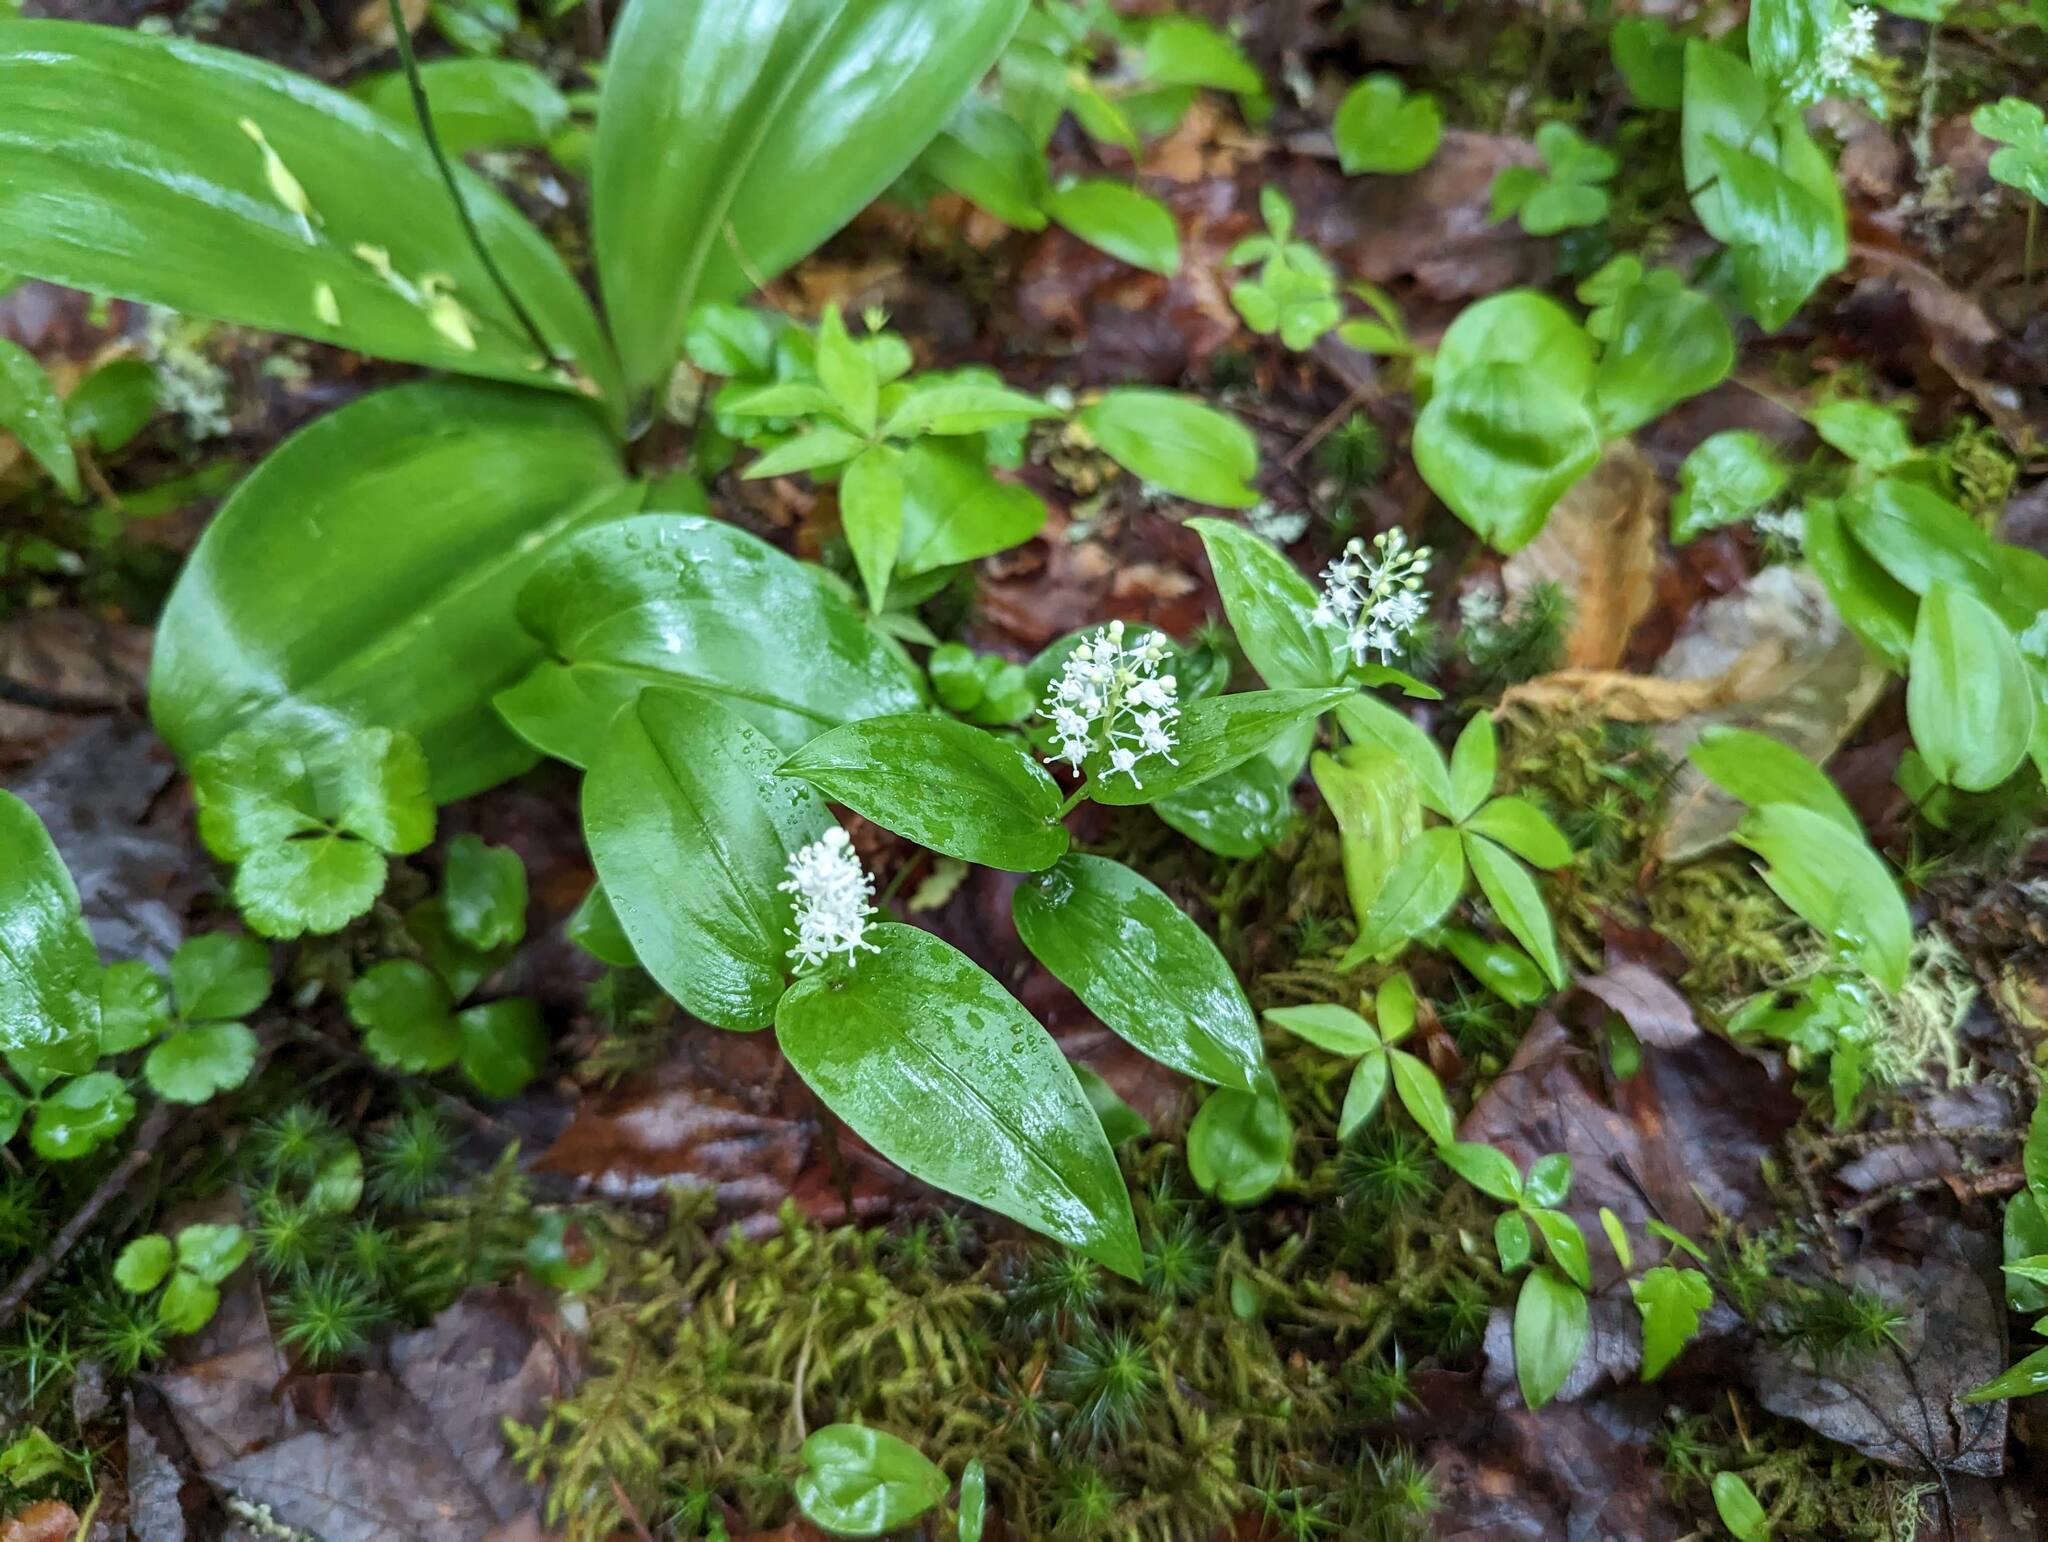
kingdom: Plantae
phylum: Tracheophyta
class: Liliopsida
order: Asparagales
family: Asparagaceae
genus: Maianthemum
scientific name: Maianthemum canadense
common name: False lily-of-the-valley
